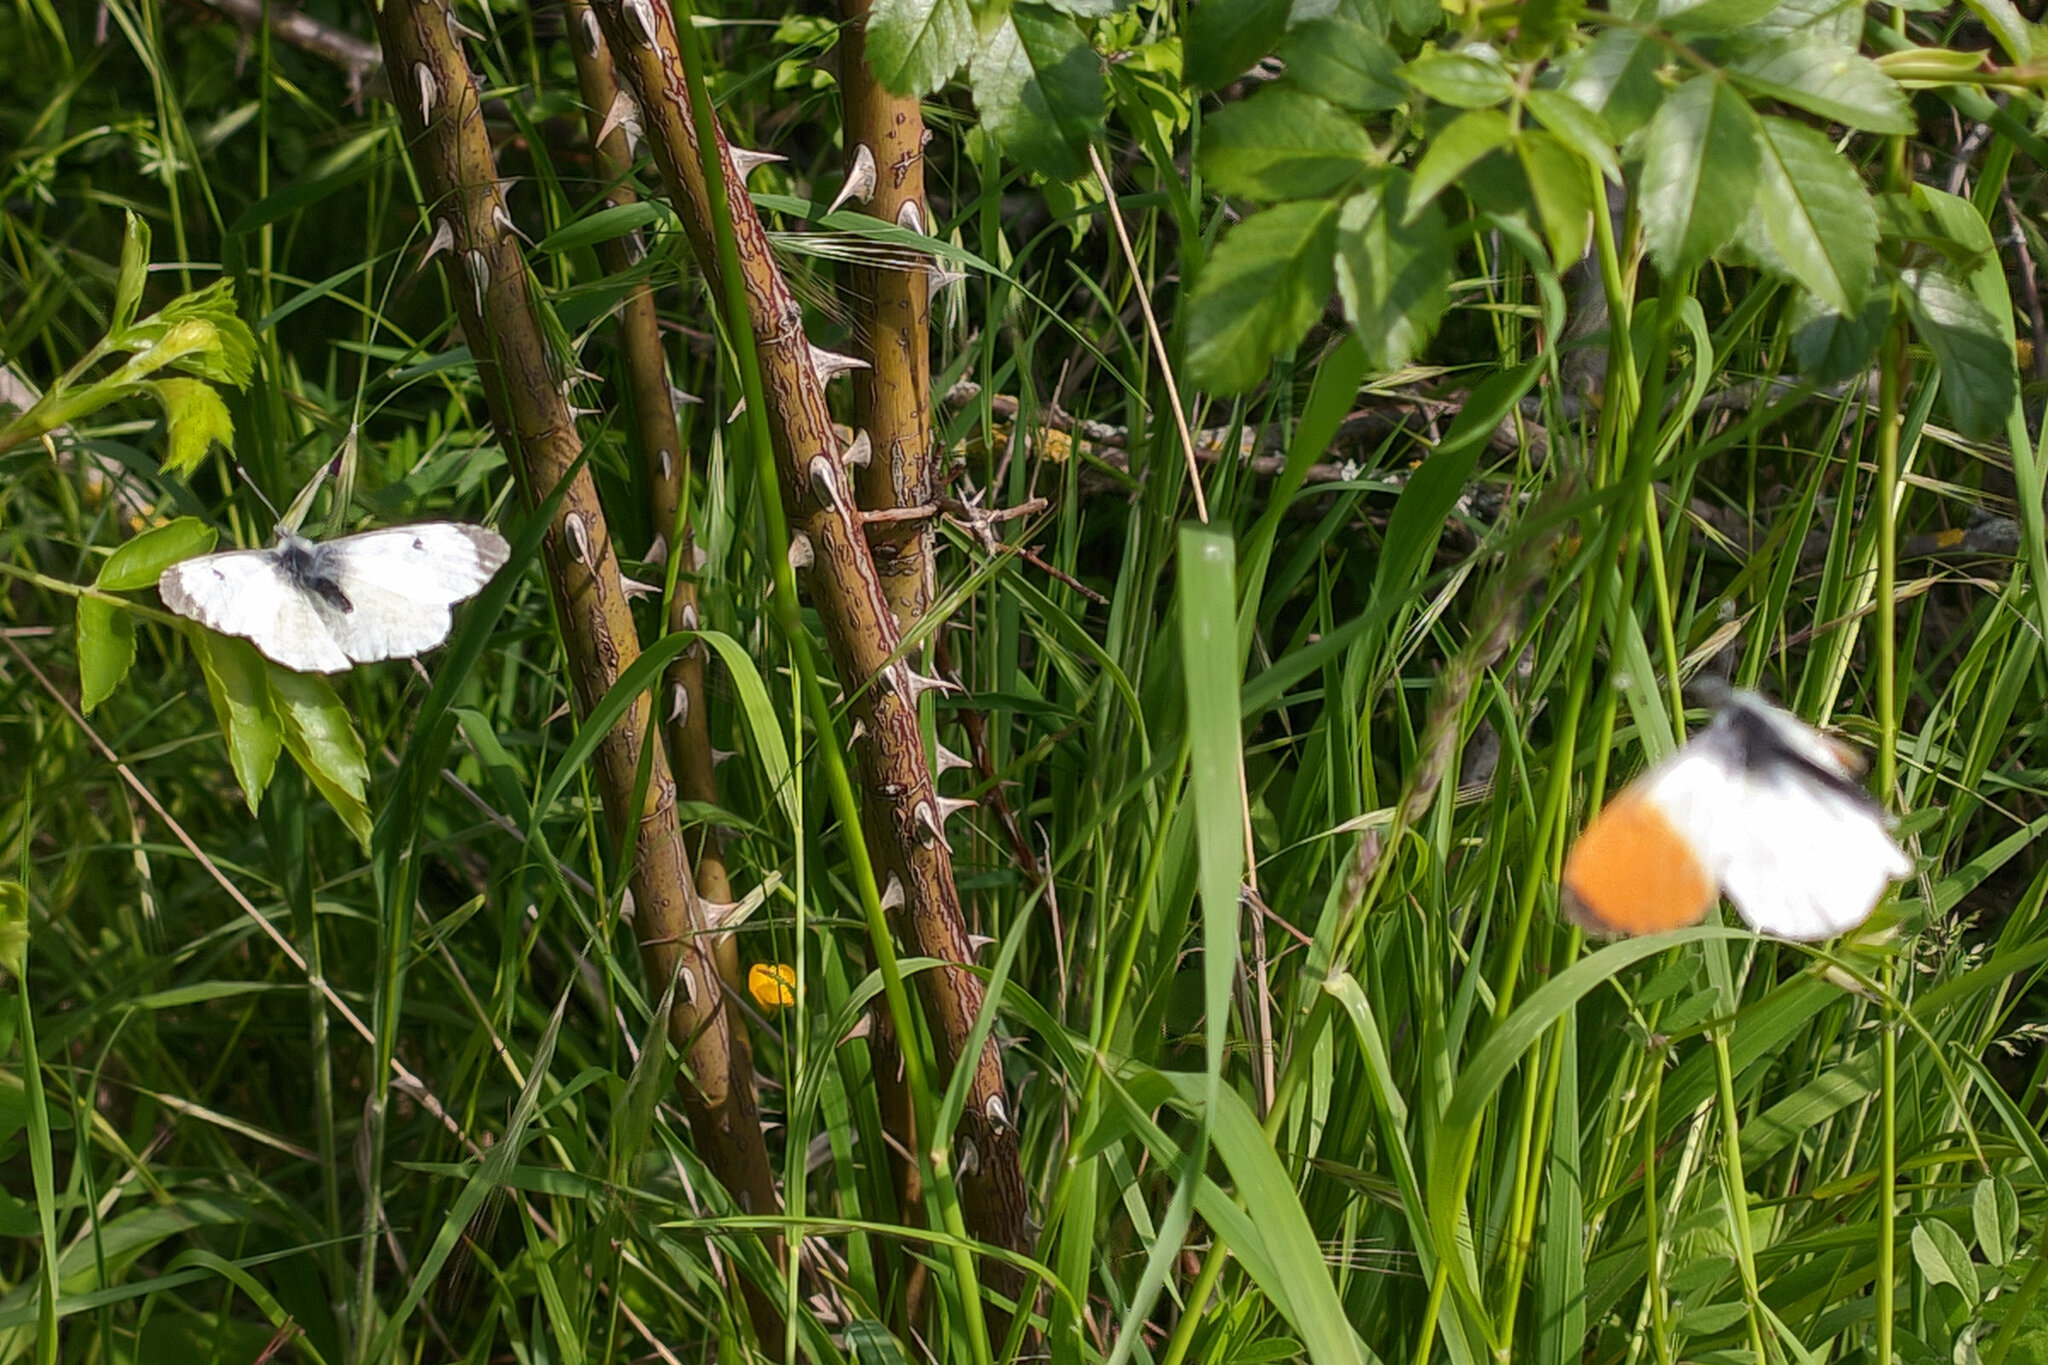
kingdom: Animalia
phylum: Arthropoda
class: Insecta
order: Lepidoptera
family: Pieridae
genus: Anthocharis
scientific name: Anthocharis cardamines
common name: Orange-tip
